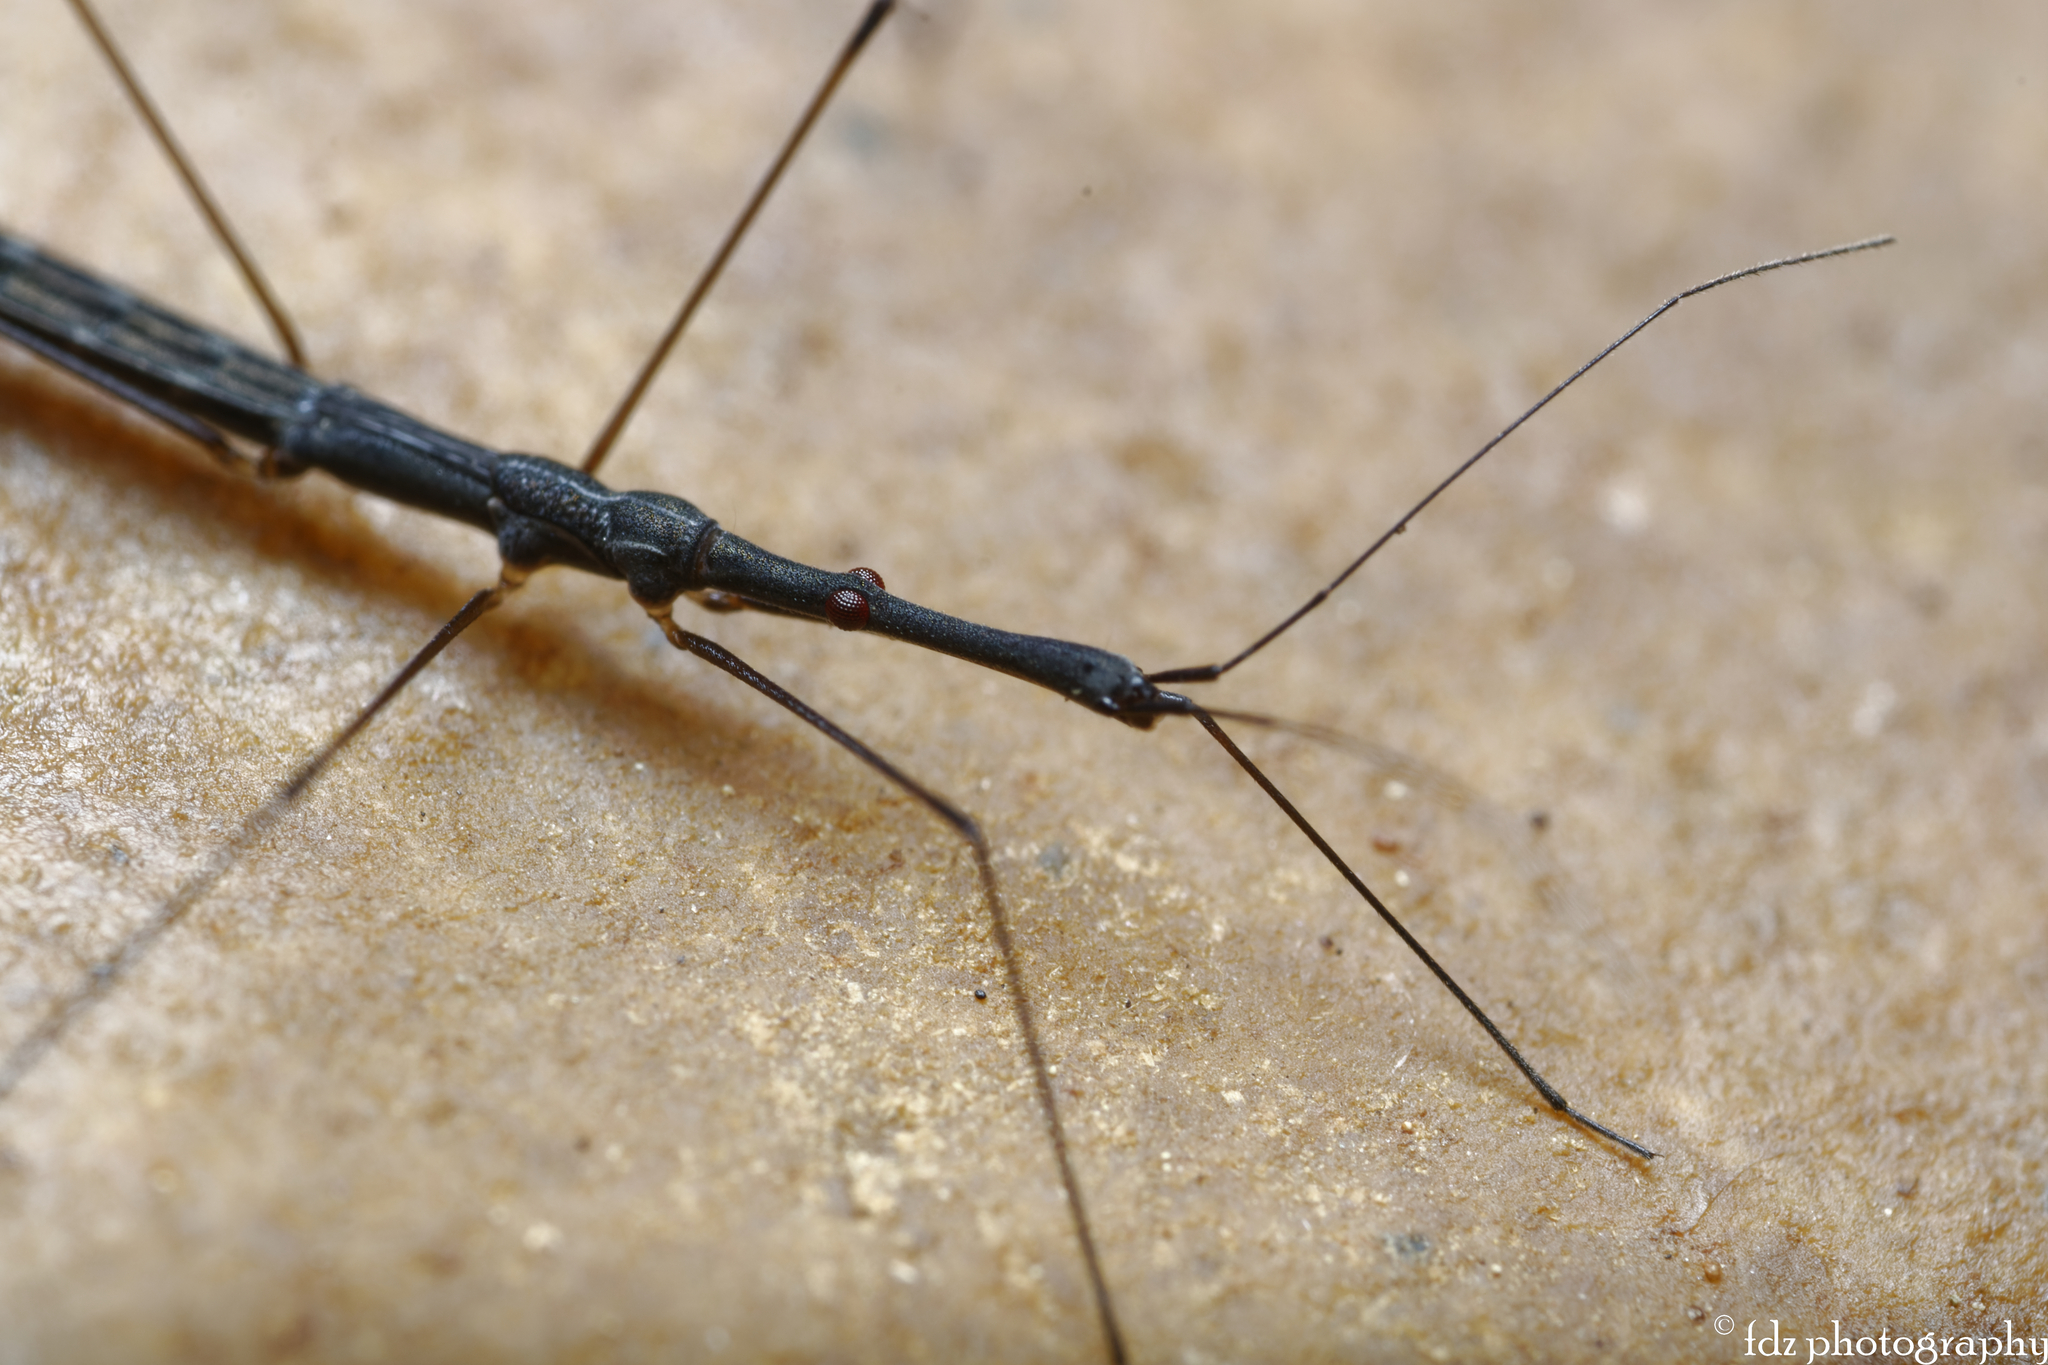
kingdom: Animalia
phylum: Arthropoda
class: Insecta
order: Hemiptera
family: Hydrometridae
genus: Hydrometra
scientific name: Hydrometra stagnorum
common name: Water measurer
